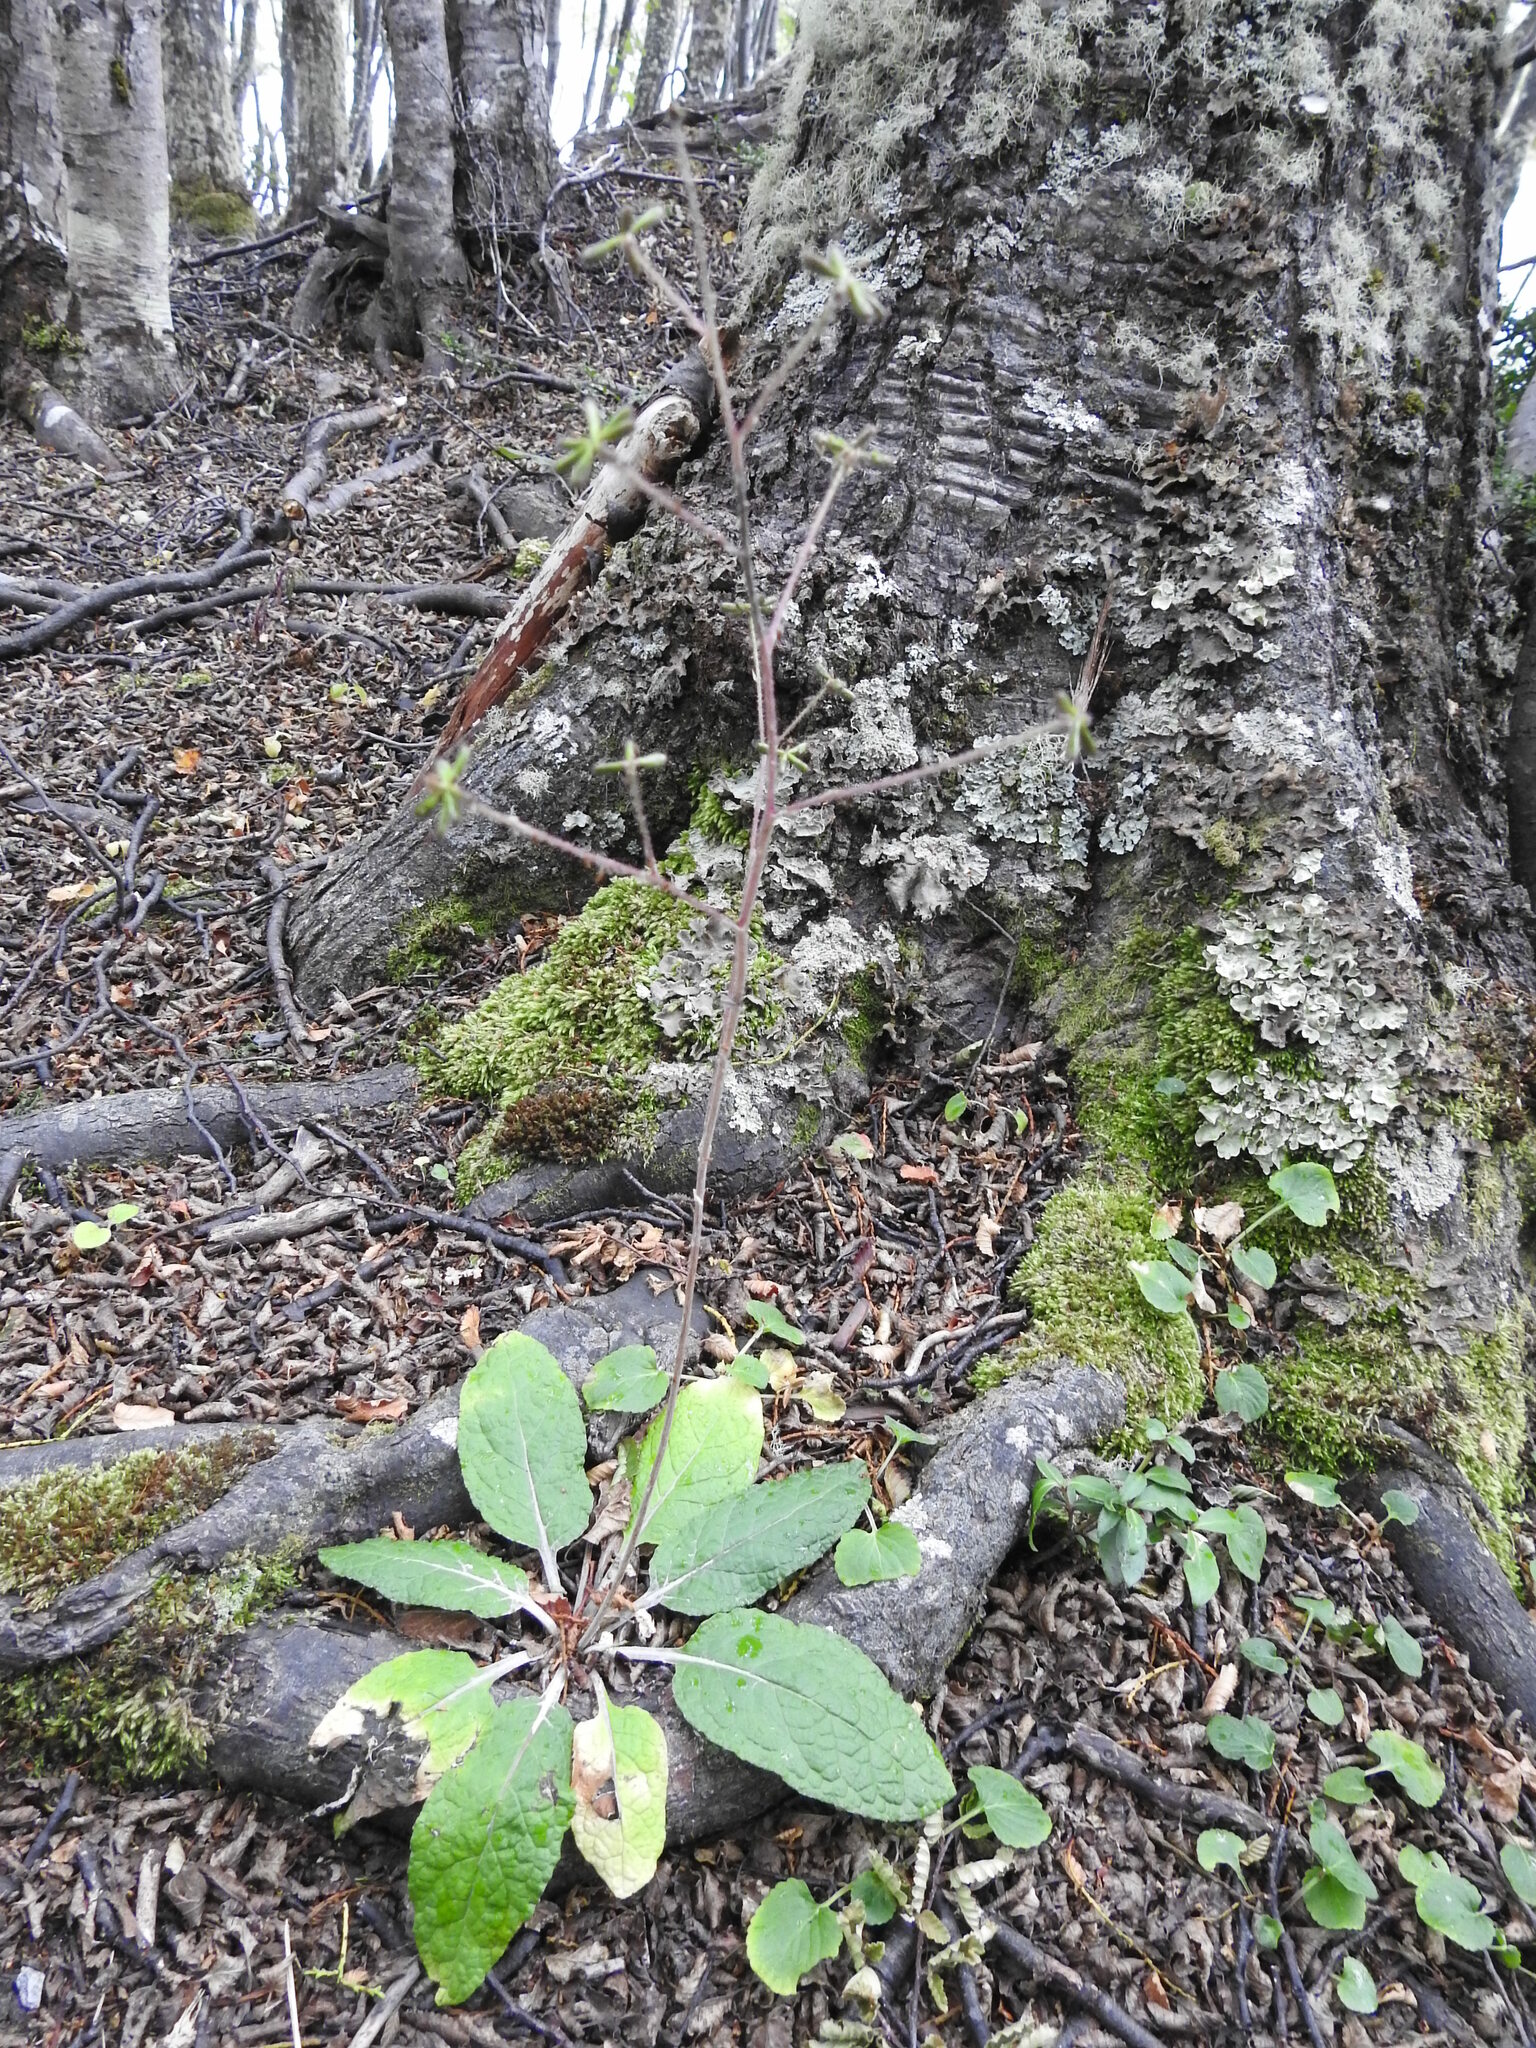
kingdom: Plantae
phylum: Tracheophyta
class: Magnoliopsida
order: Asterales
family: Asteraceae
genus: Adenocaulon
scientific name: Adenocaulon chilense
